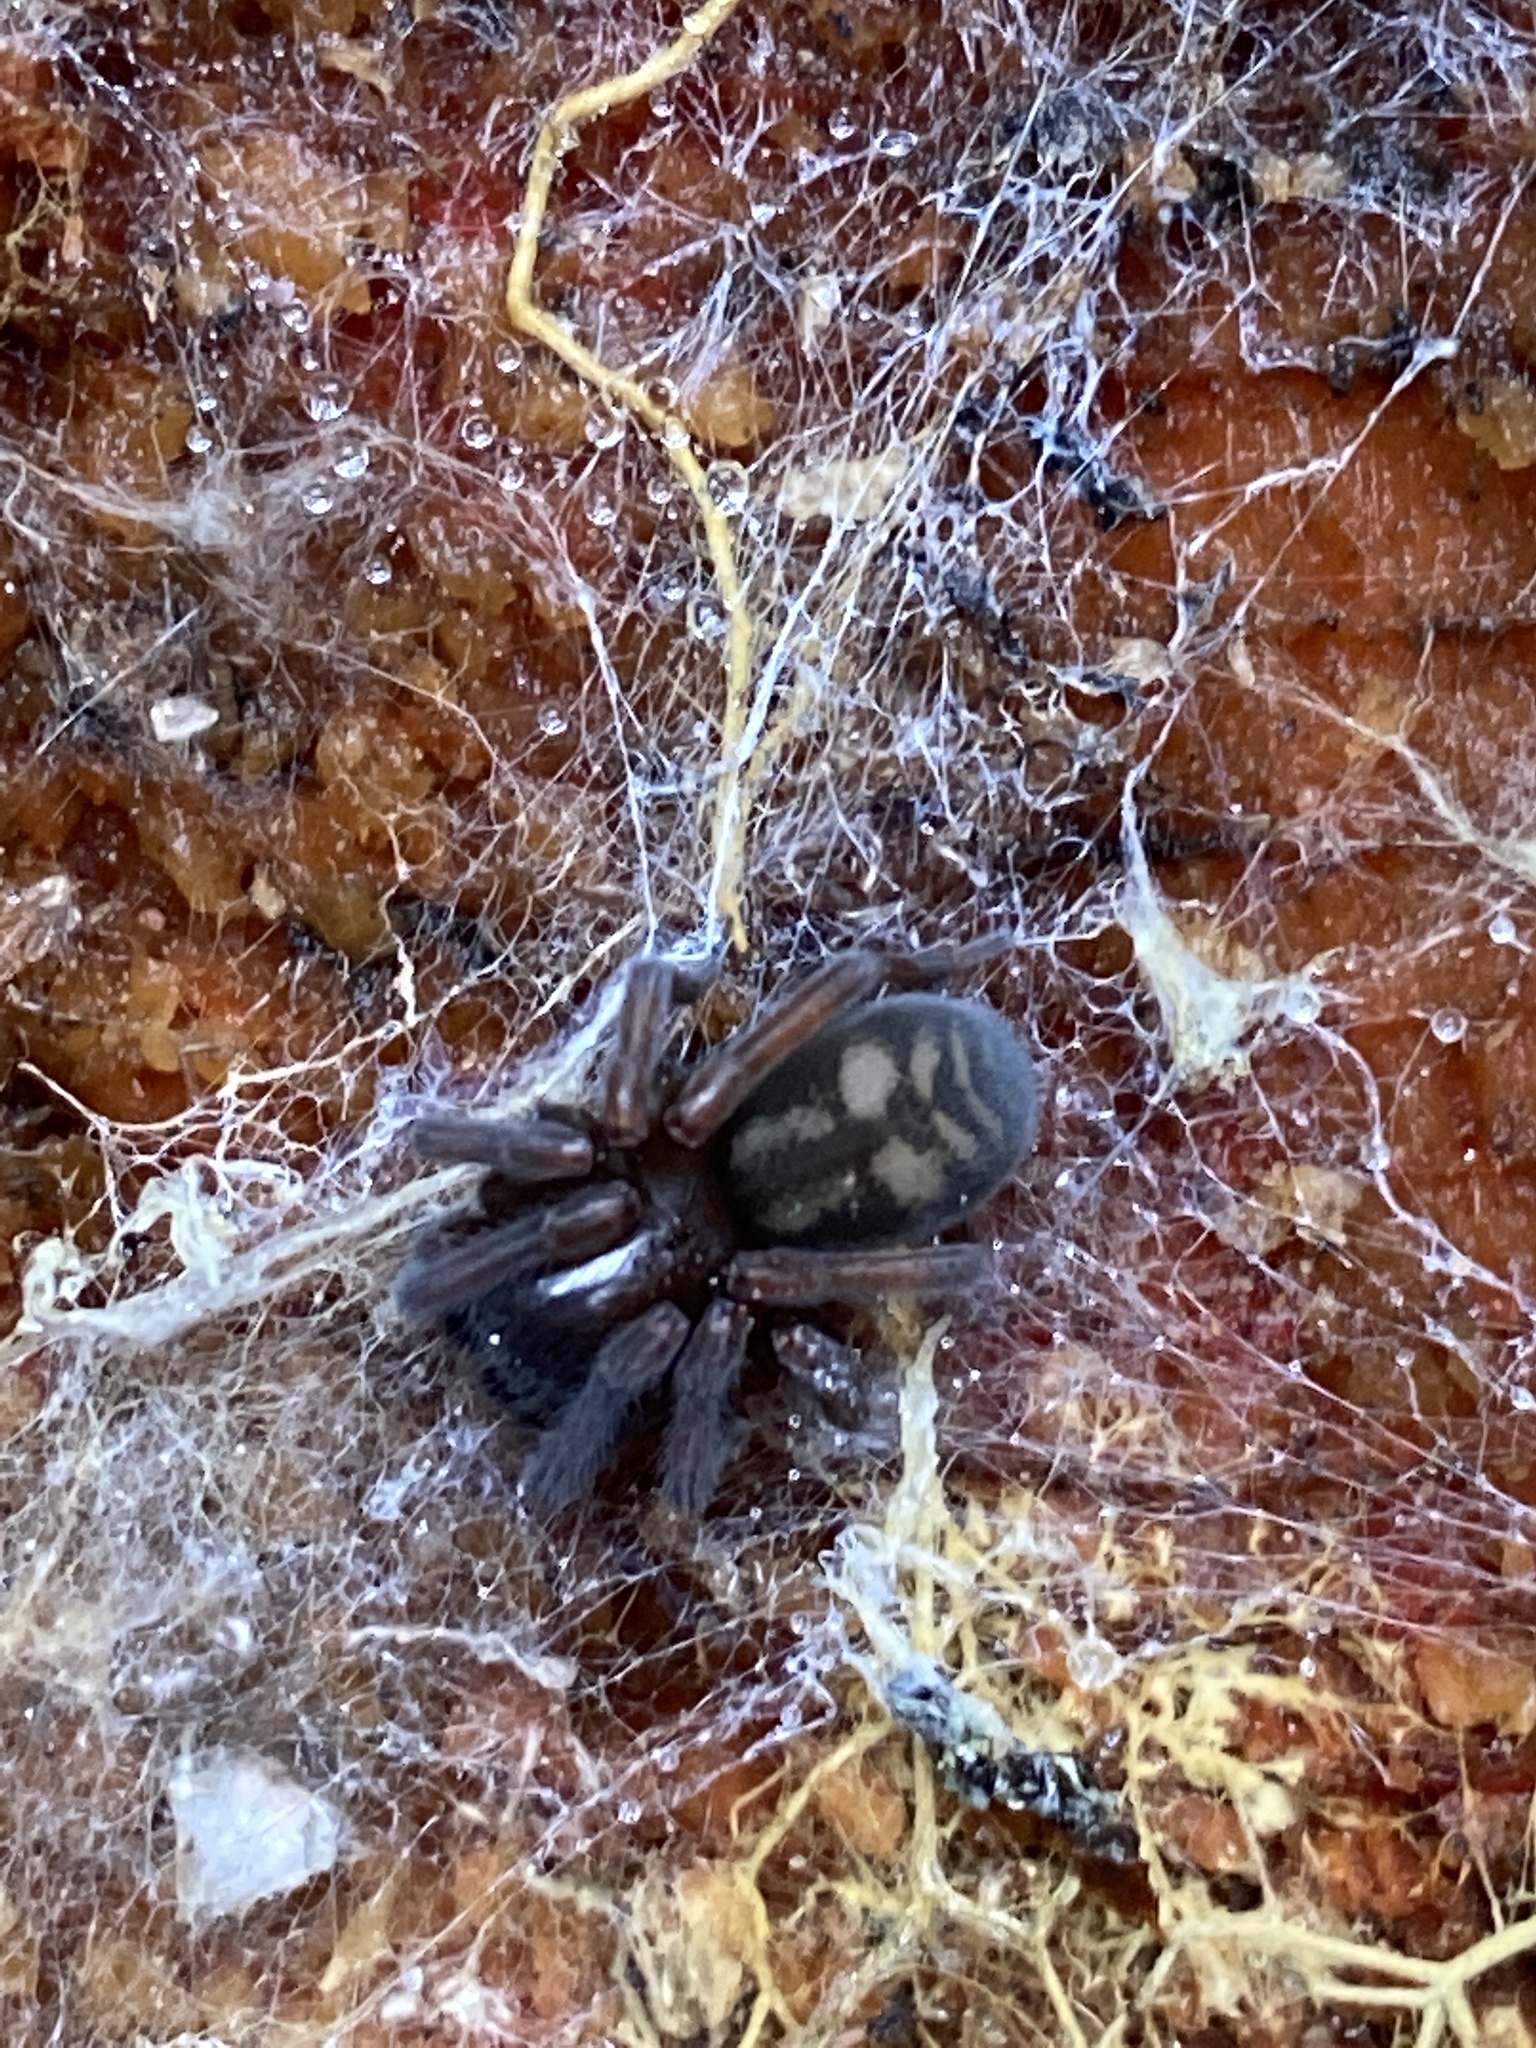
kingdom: Animalia
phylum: Arthropoda
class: Arachnida
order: Araneae
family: Amaurobiidae
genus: Callobius
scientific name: Callobius claustrarius
